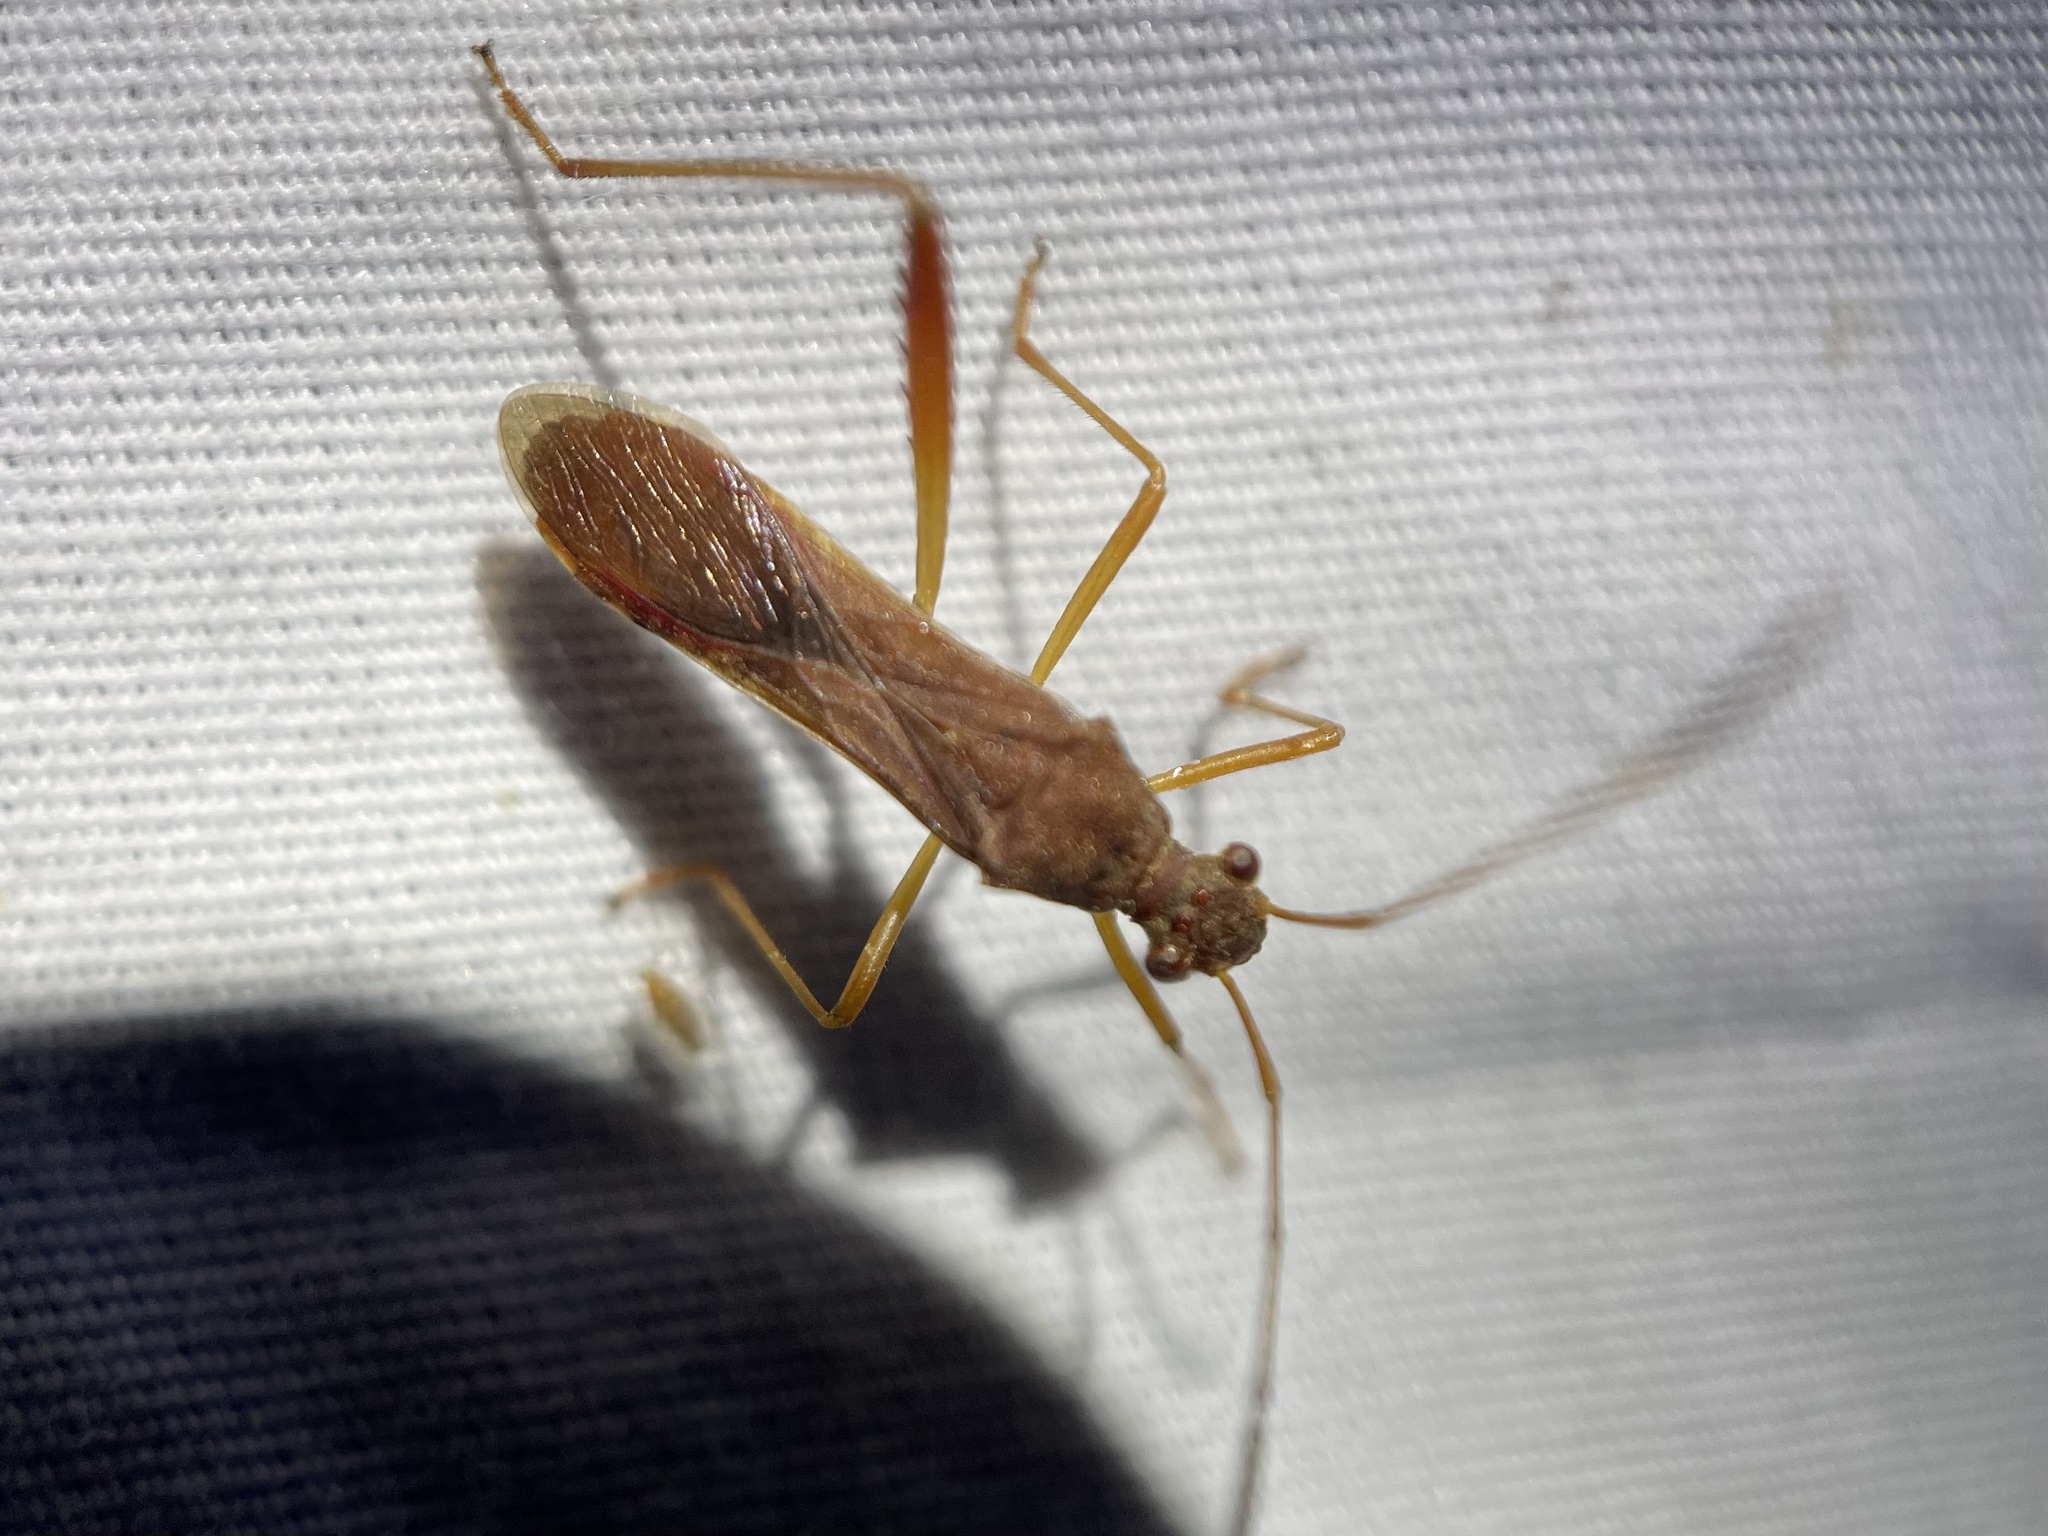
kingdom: Animalia
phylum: Arthropoda
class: Insecta
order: Hemiptera
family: Alydidae
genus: Megalotomus
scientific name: Megalotomus quinquespinosus
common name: Lupine bug
